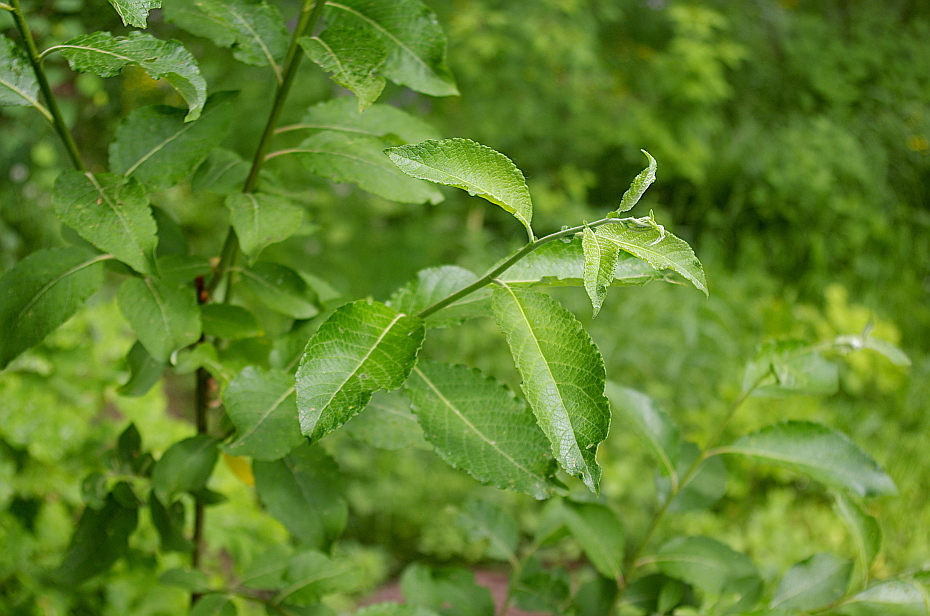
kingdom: Plantae
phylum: Tracheophyta
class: Magnoliopsida
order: Malpighiales
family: Salicaceae
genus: Salix
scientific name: Salix caprea
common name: Goat willow
